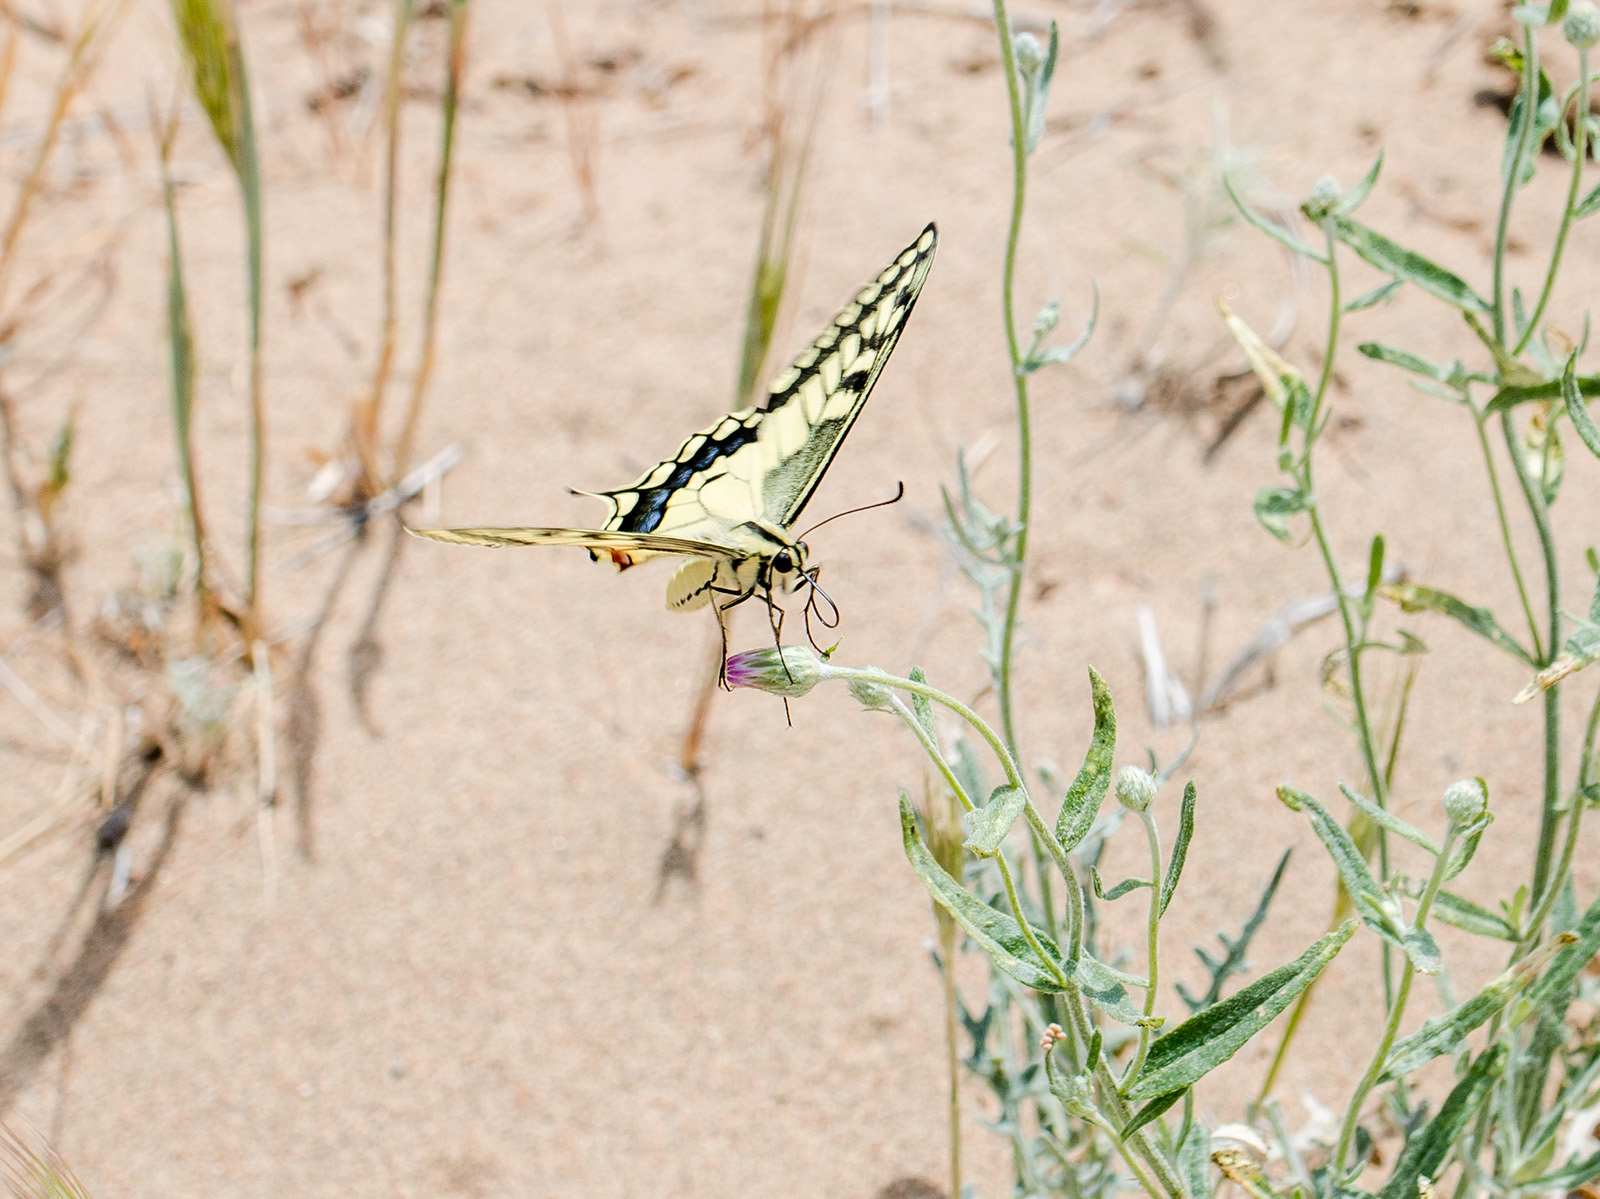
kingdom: Animalia
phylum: Arthropoda
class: Insecta
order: Lepidoptera
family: Papilionidae
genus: Papilio
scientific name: Papilio machaon
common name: Swallowtail
